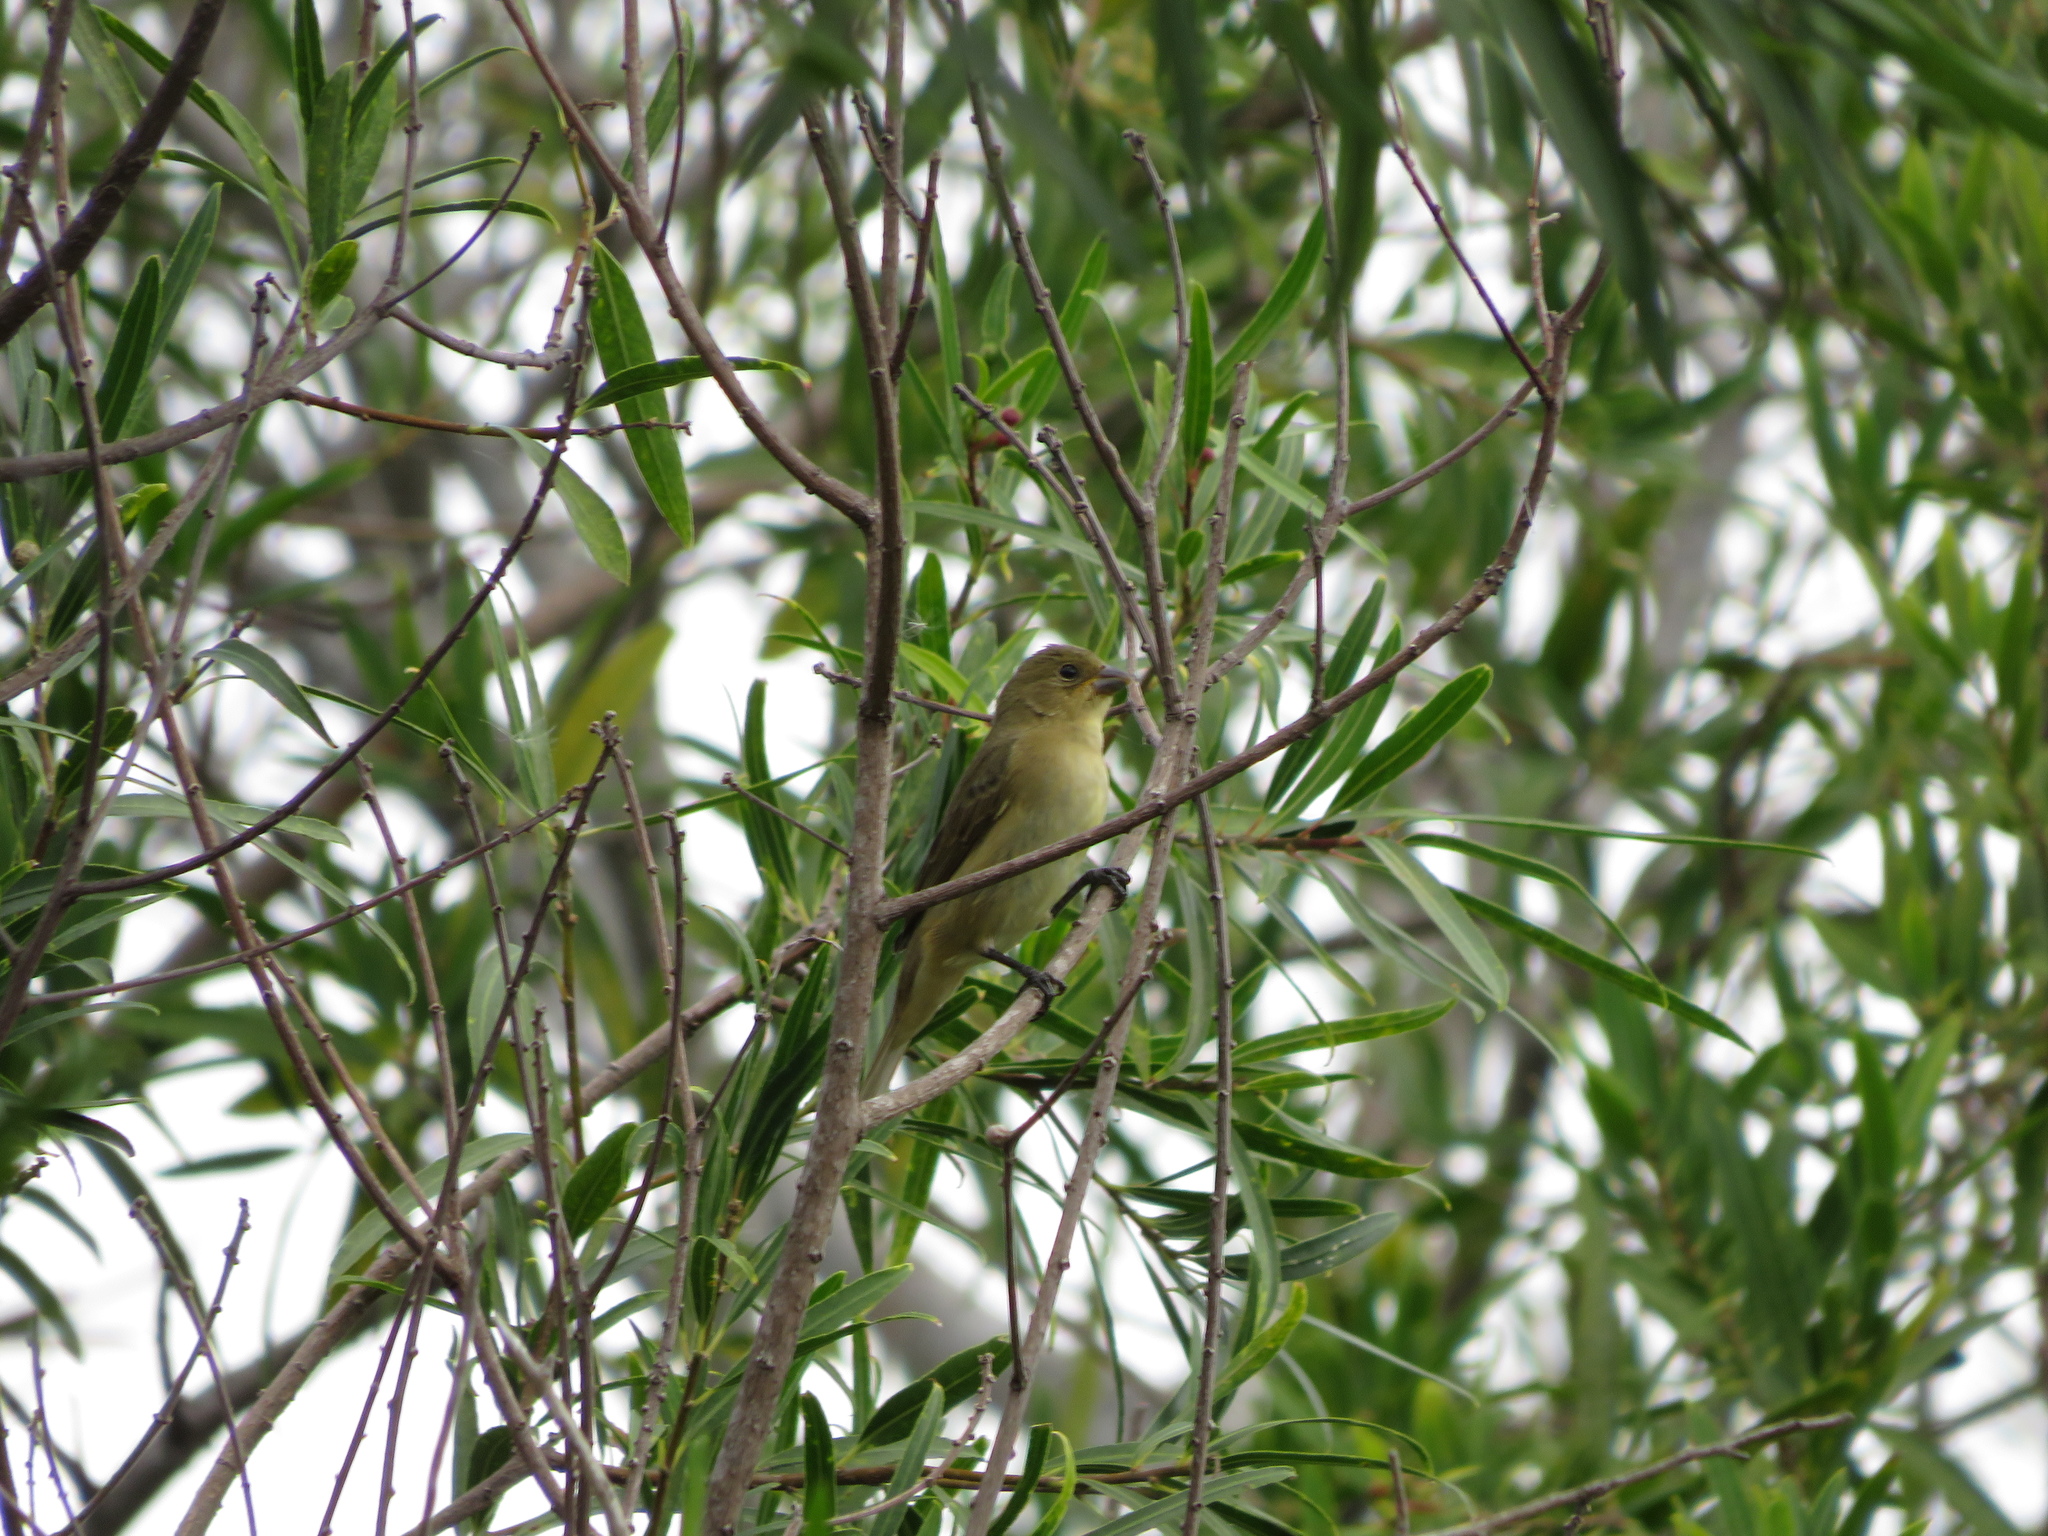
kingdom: Animalia
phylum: Chordata
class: Aves
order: Passeriformes
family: Thraupidae
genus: Sporophila
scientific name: Sporophila caerulescens
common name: Double-collared seedeater
